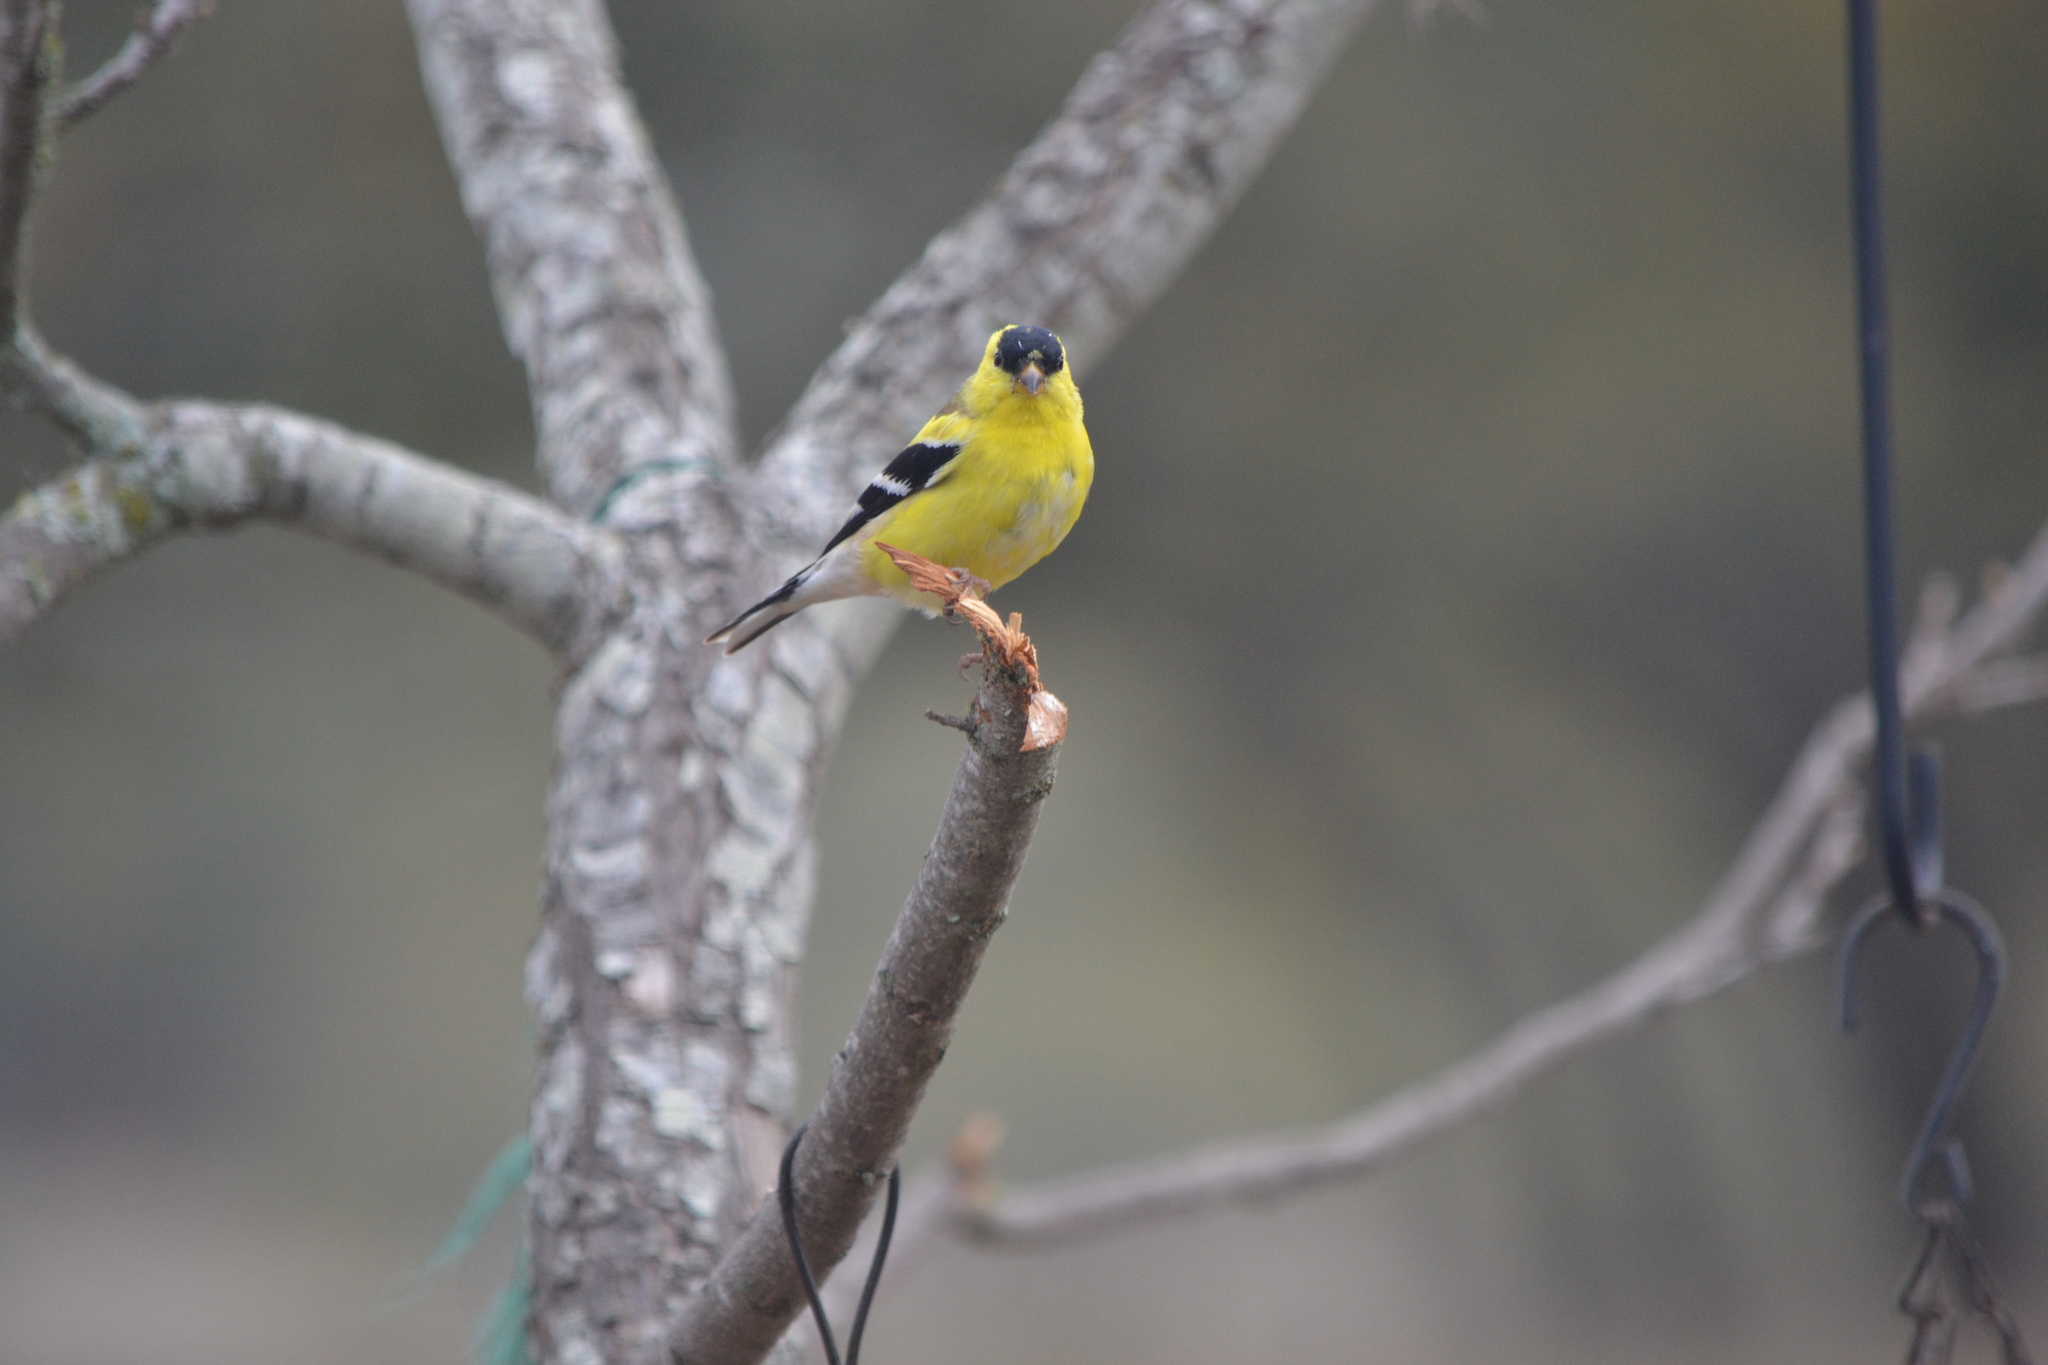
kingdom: Animalia
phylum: Chordata
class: Aves
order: Passeriformes
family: Fringillidae
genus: Spinus
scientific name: Spinus tristis
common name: American goldfinch
